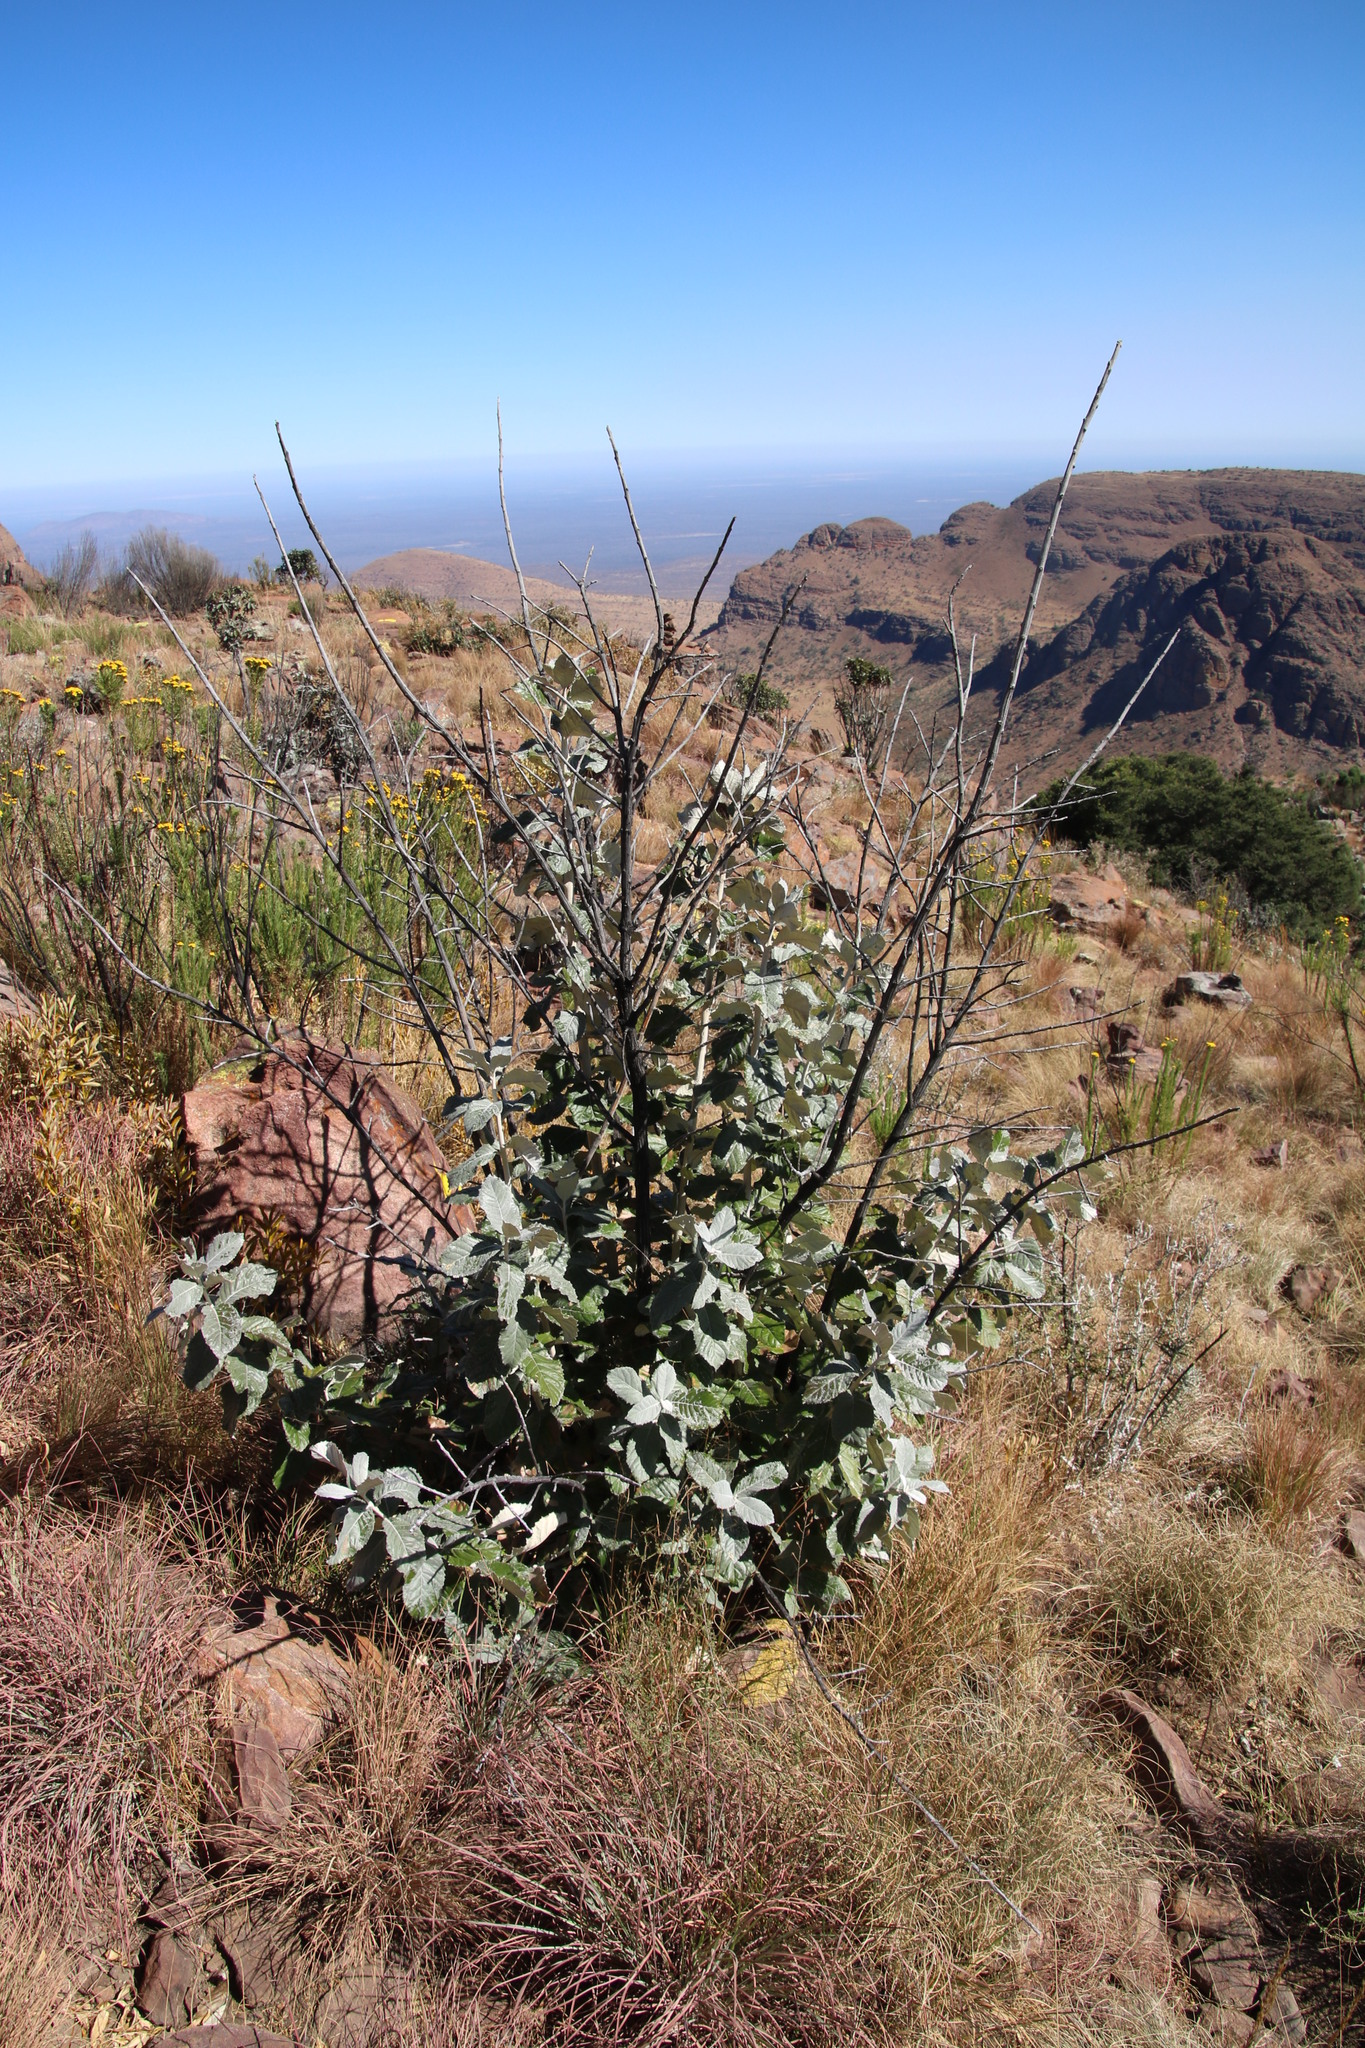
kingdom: Plantae
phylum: Tracheophyta
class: Magnoliopsida
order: Asterales
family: Asteraceae
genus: Brachylaena
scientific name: Brachylaena discolor
